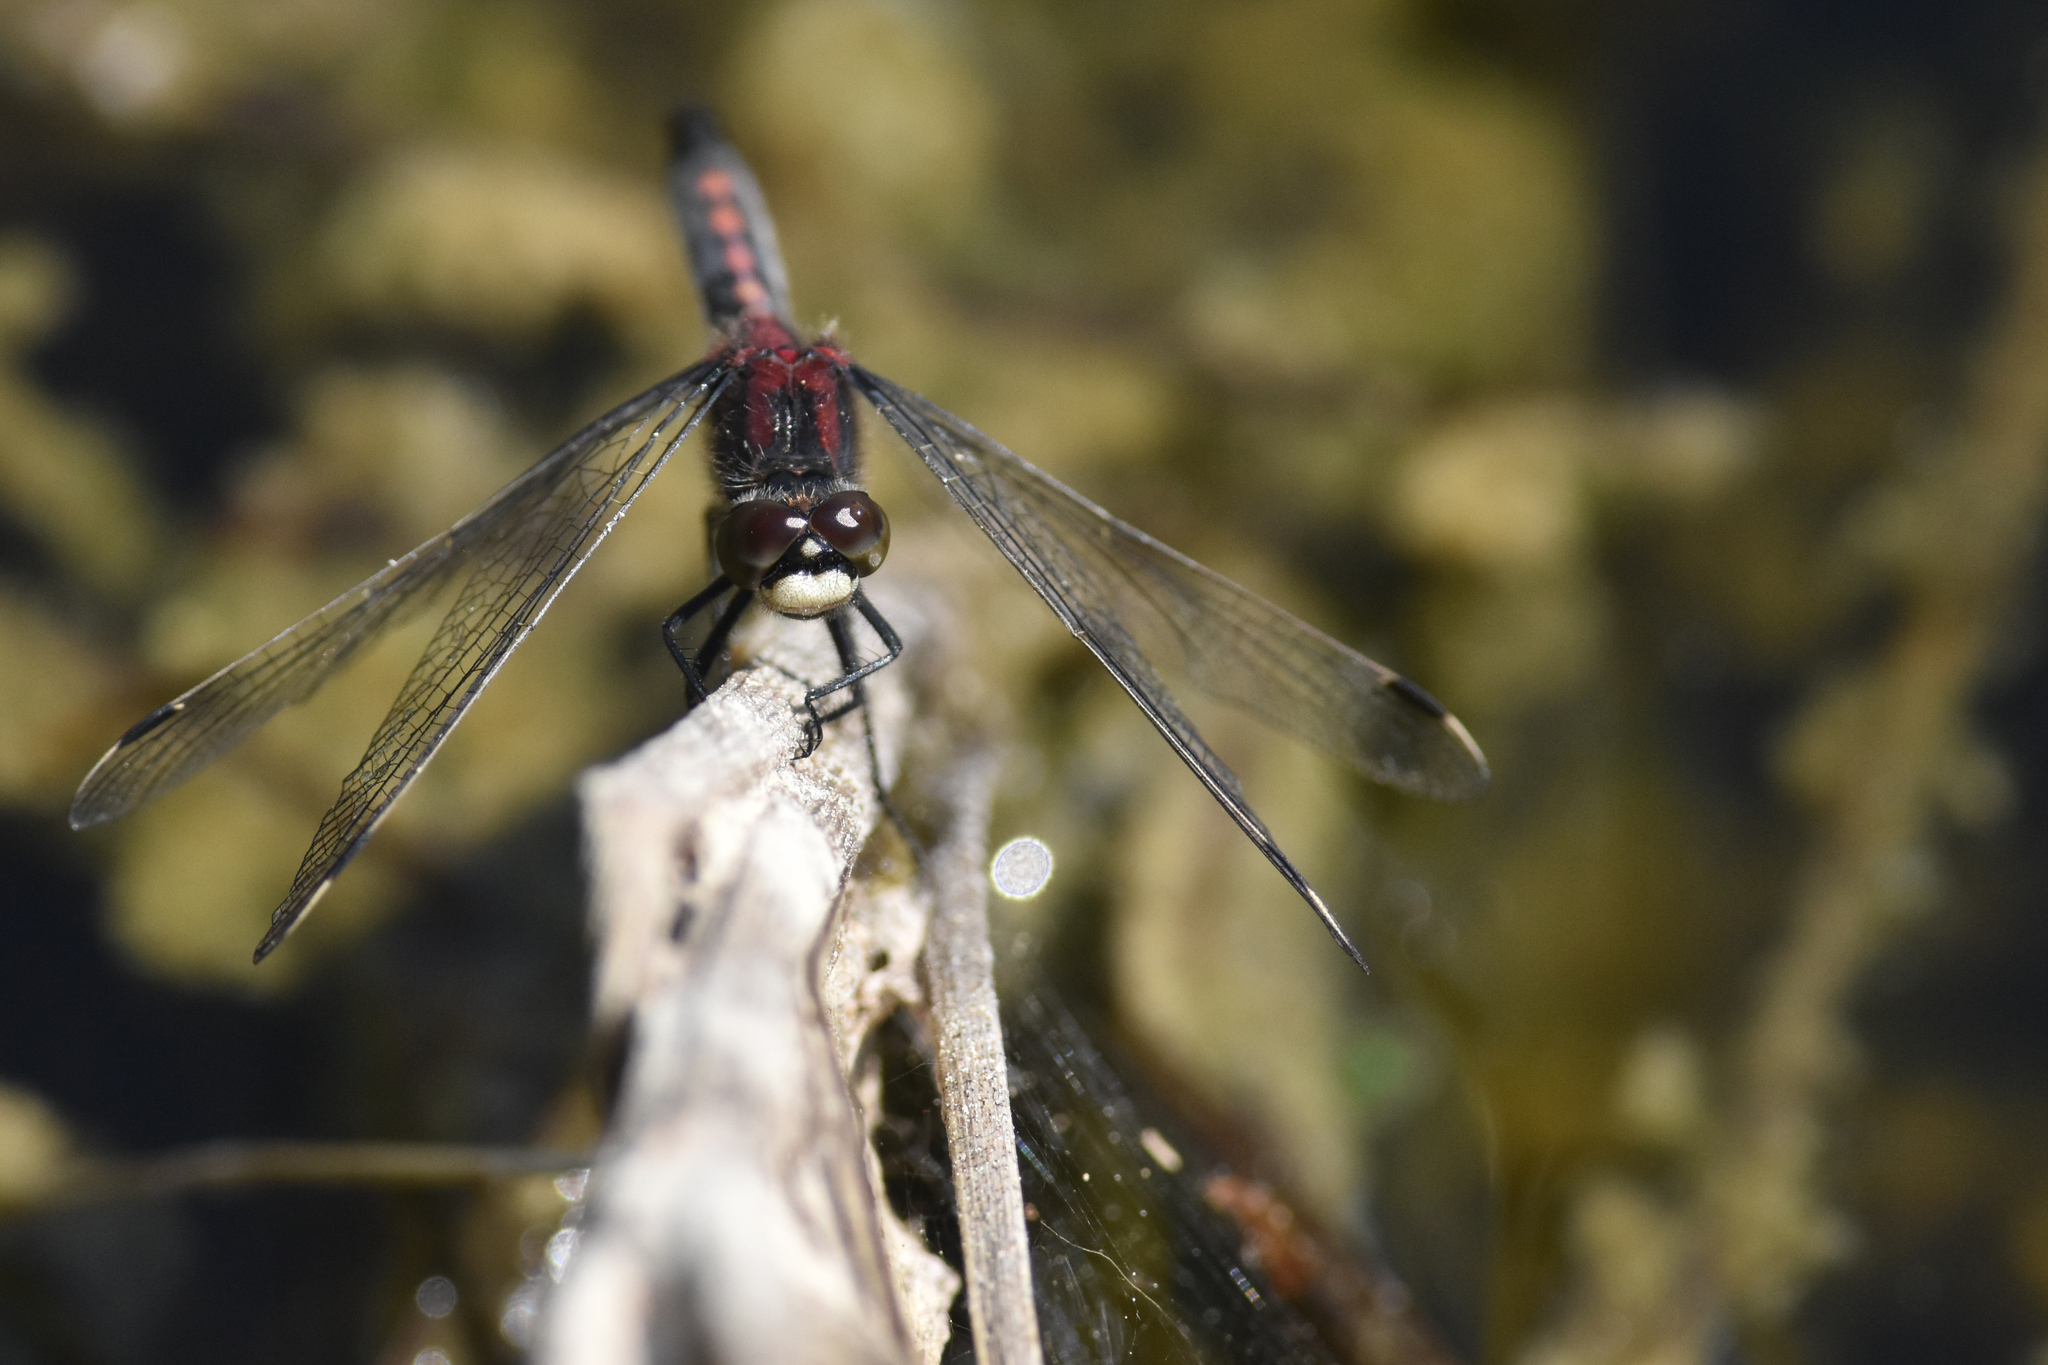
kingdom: Animalia
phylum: Arthropoda
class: Insecta
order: Odonata
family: Libellulidae
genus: Leucorrhinia
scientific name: Leucorrhinia hudsonica
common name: Hudsonian whiteface
